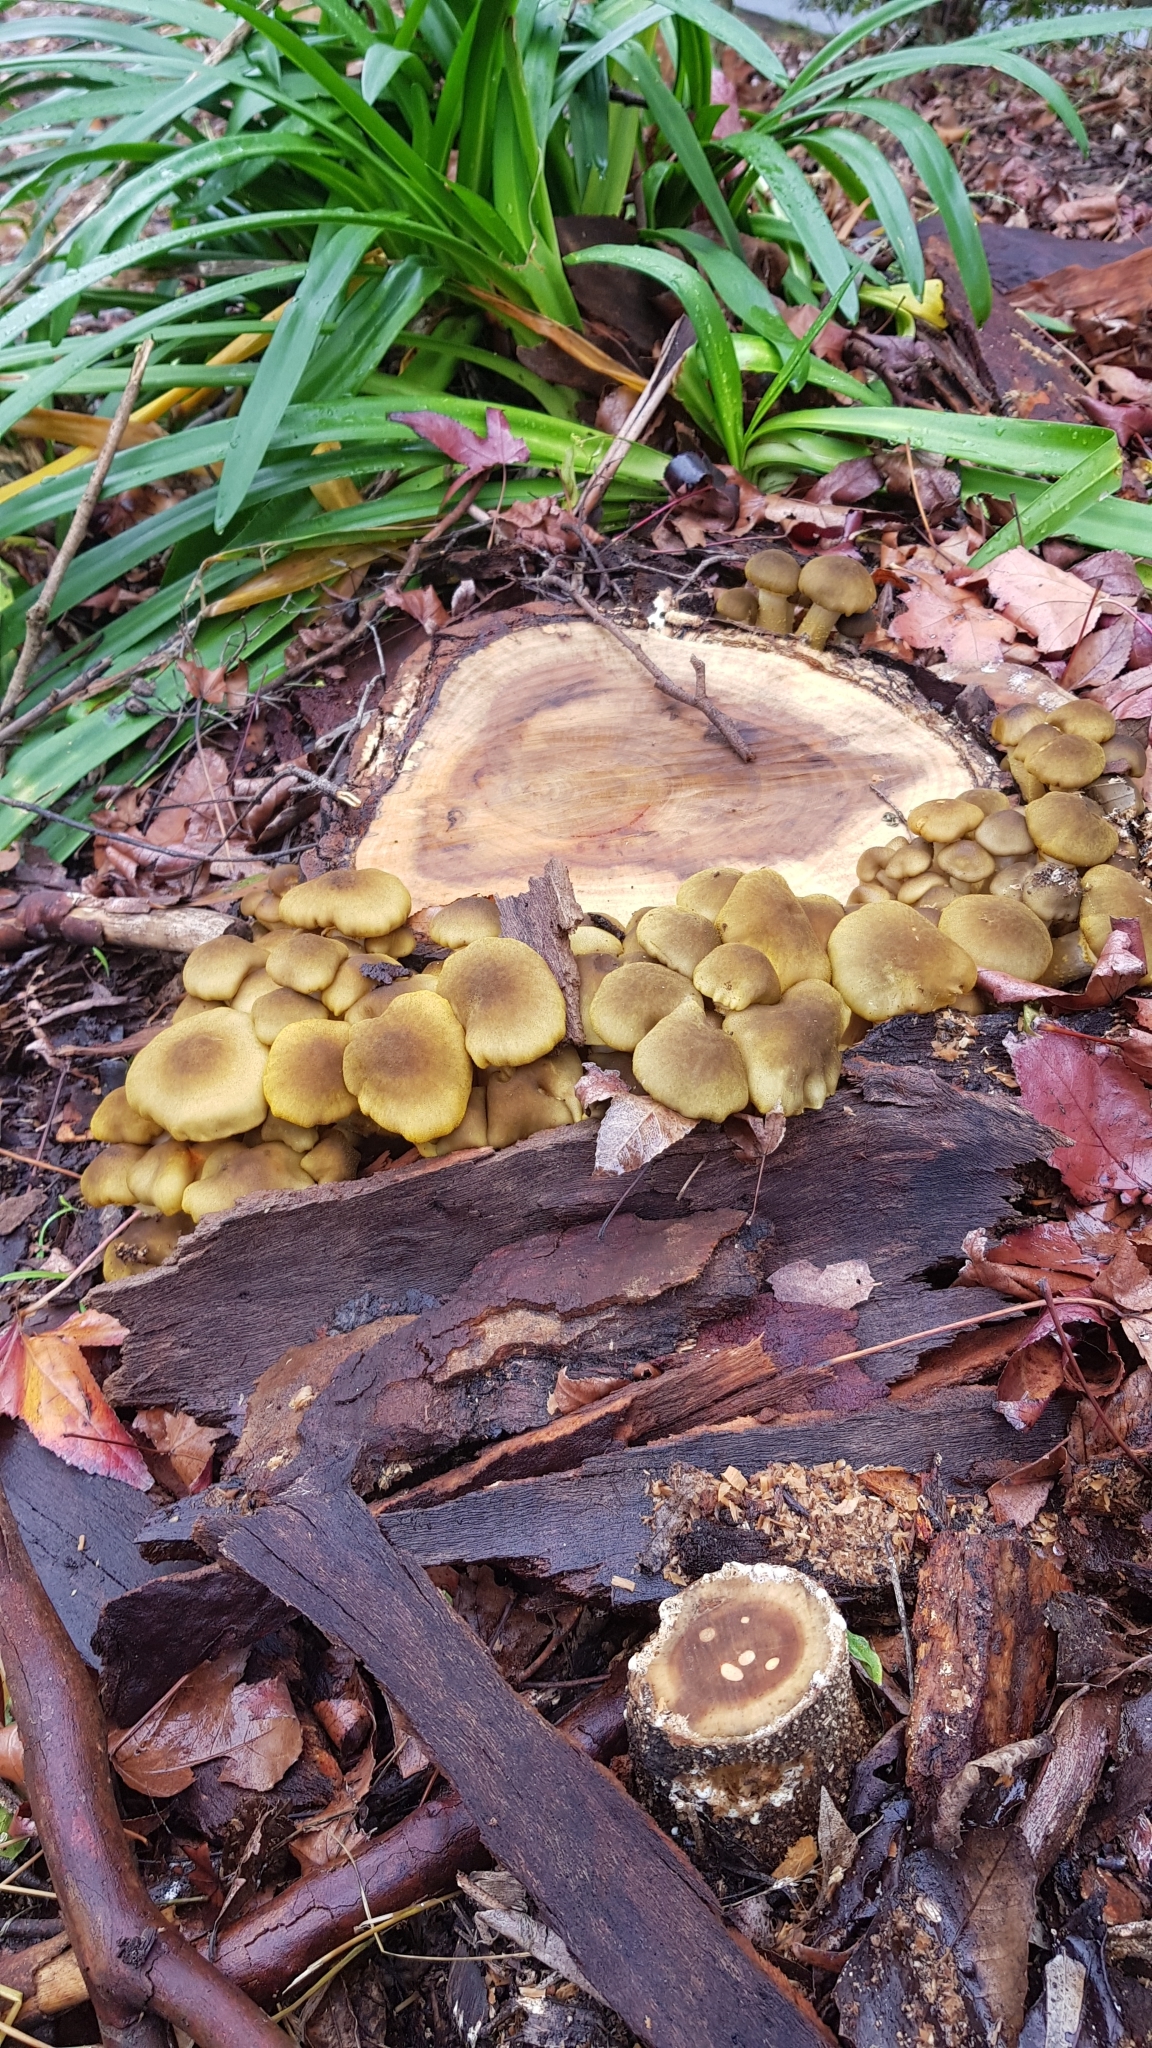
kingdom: Fungi
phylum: Basidiomycota
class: Agaricomycetes
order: Agaricales
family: Physalacriaceae
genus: Armillaria
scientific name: Armillaria luteobubalina
